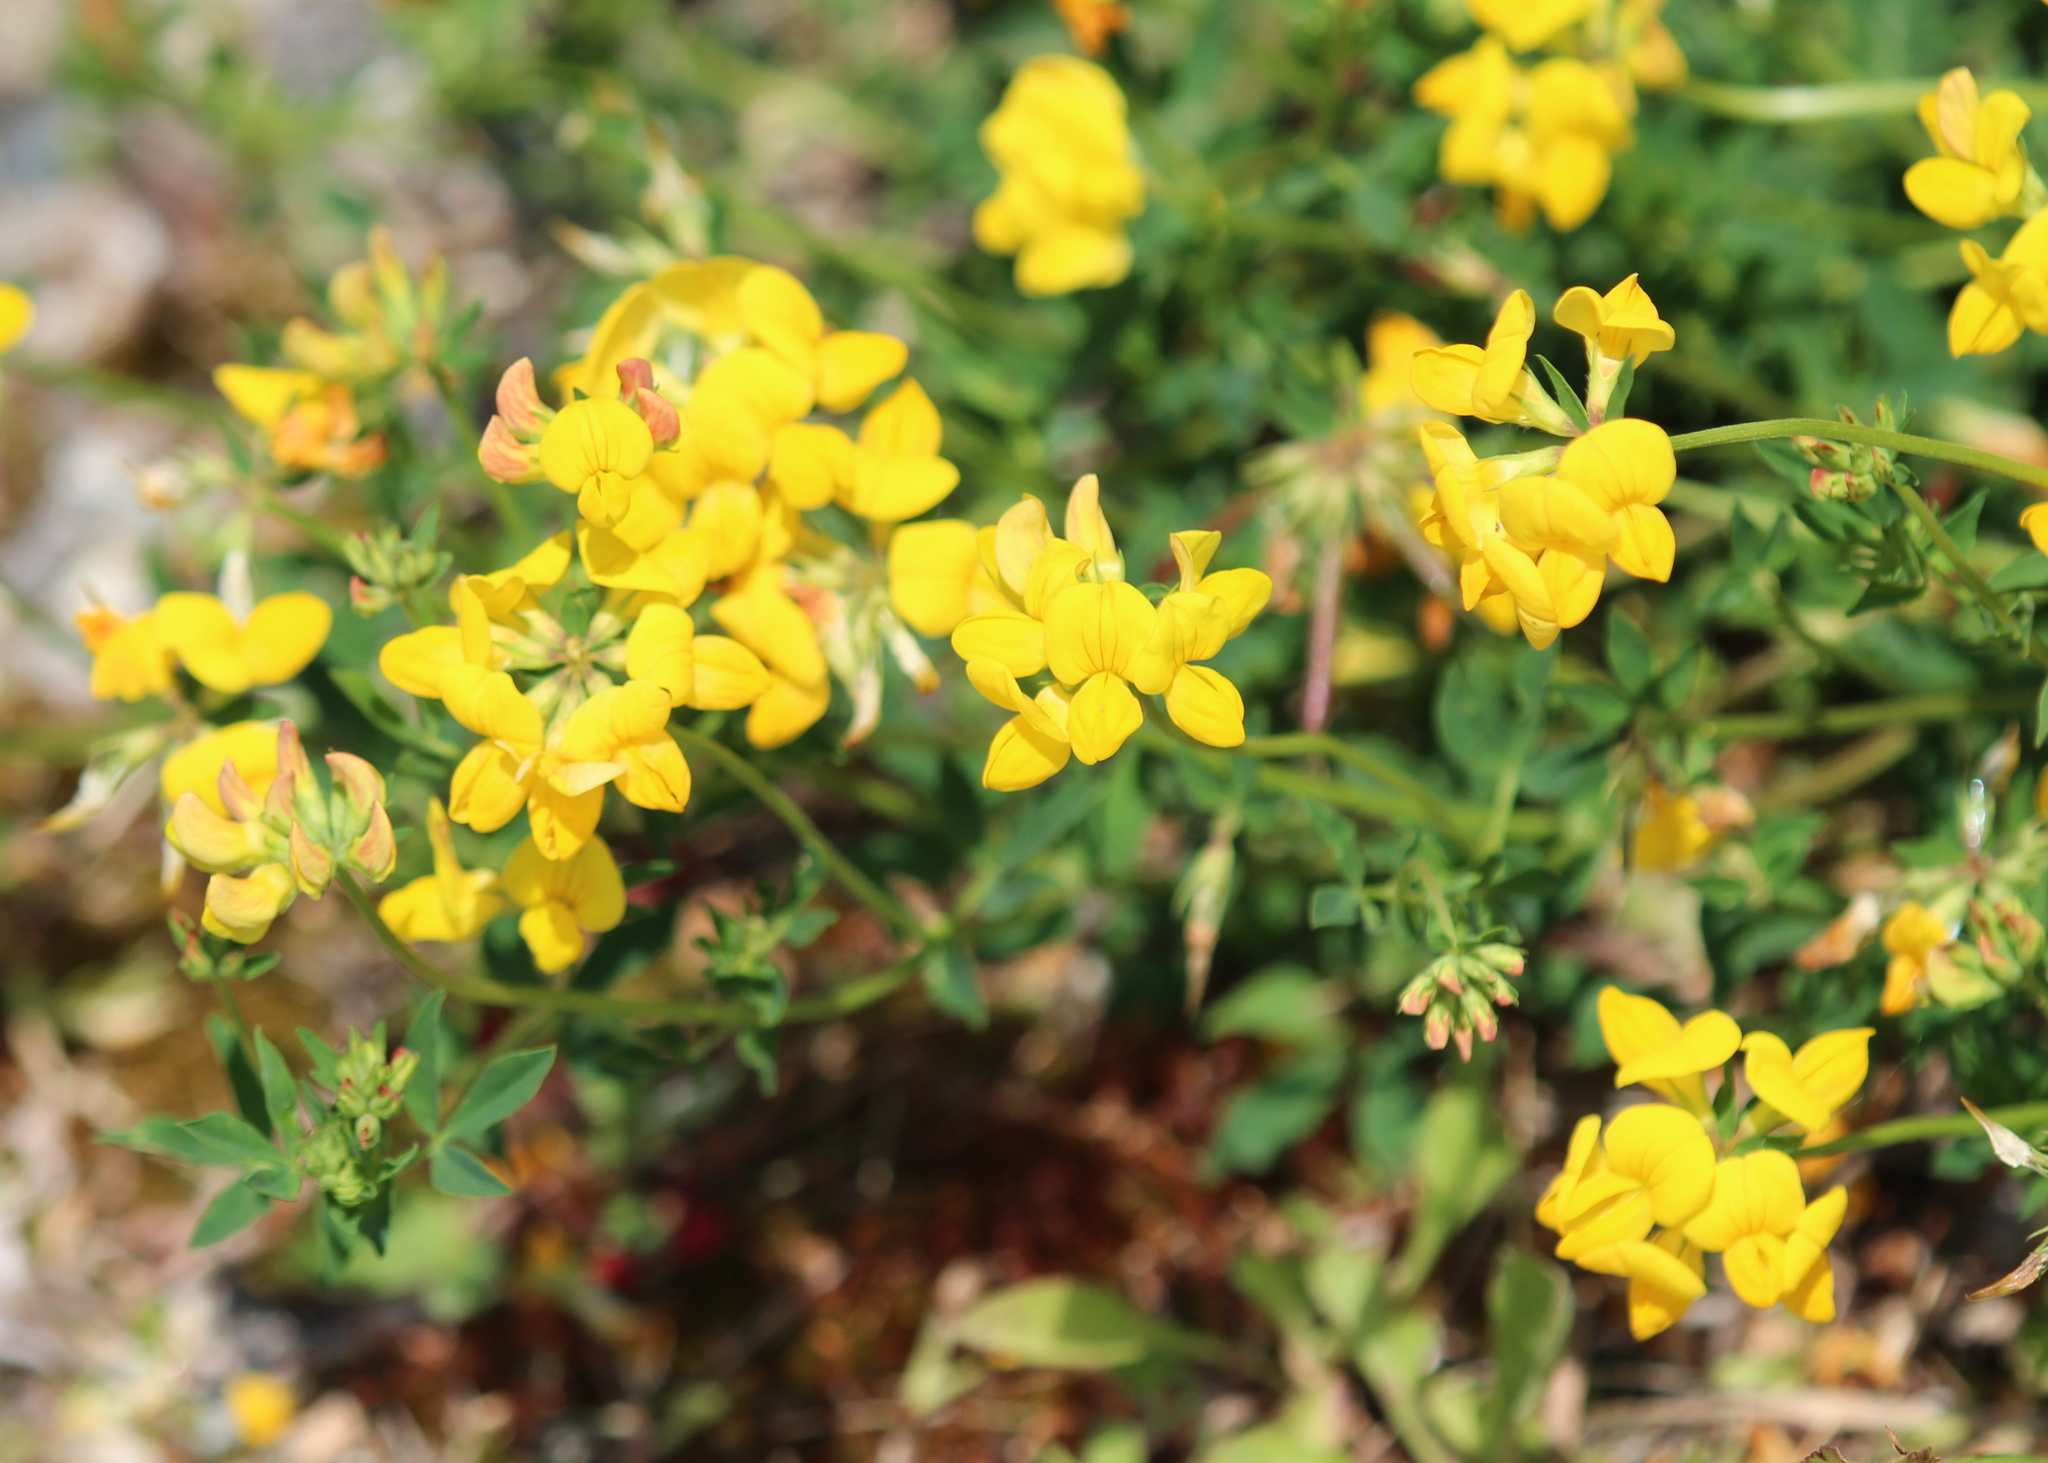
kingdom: Plantae
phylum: Tracheophyta
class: Magnoliopsida
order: Fabales
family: Fabaceae
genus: Lotus
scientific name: Lotus corniculatus
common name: Common bird's-foot-trefoil
